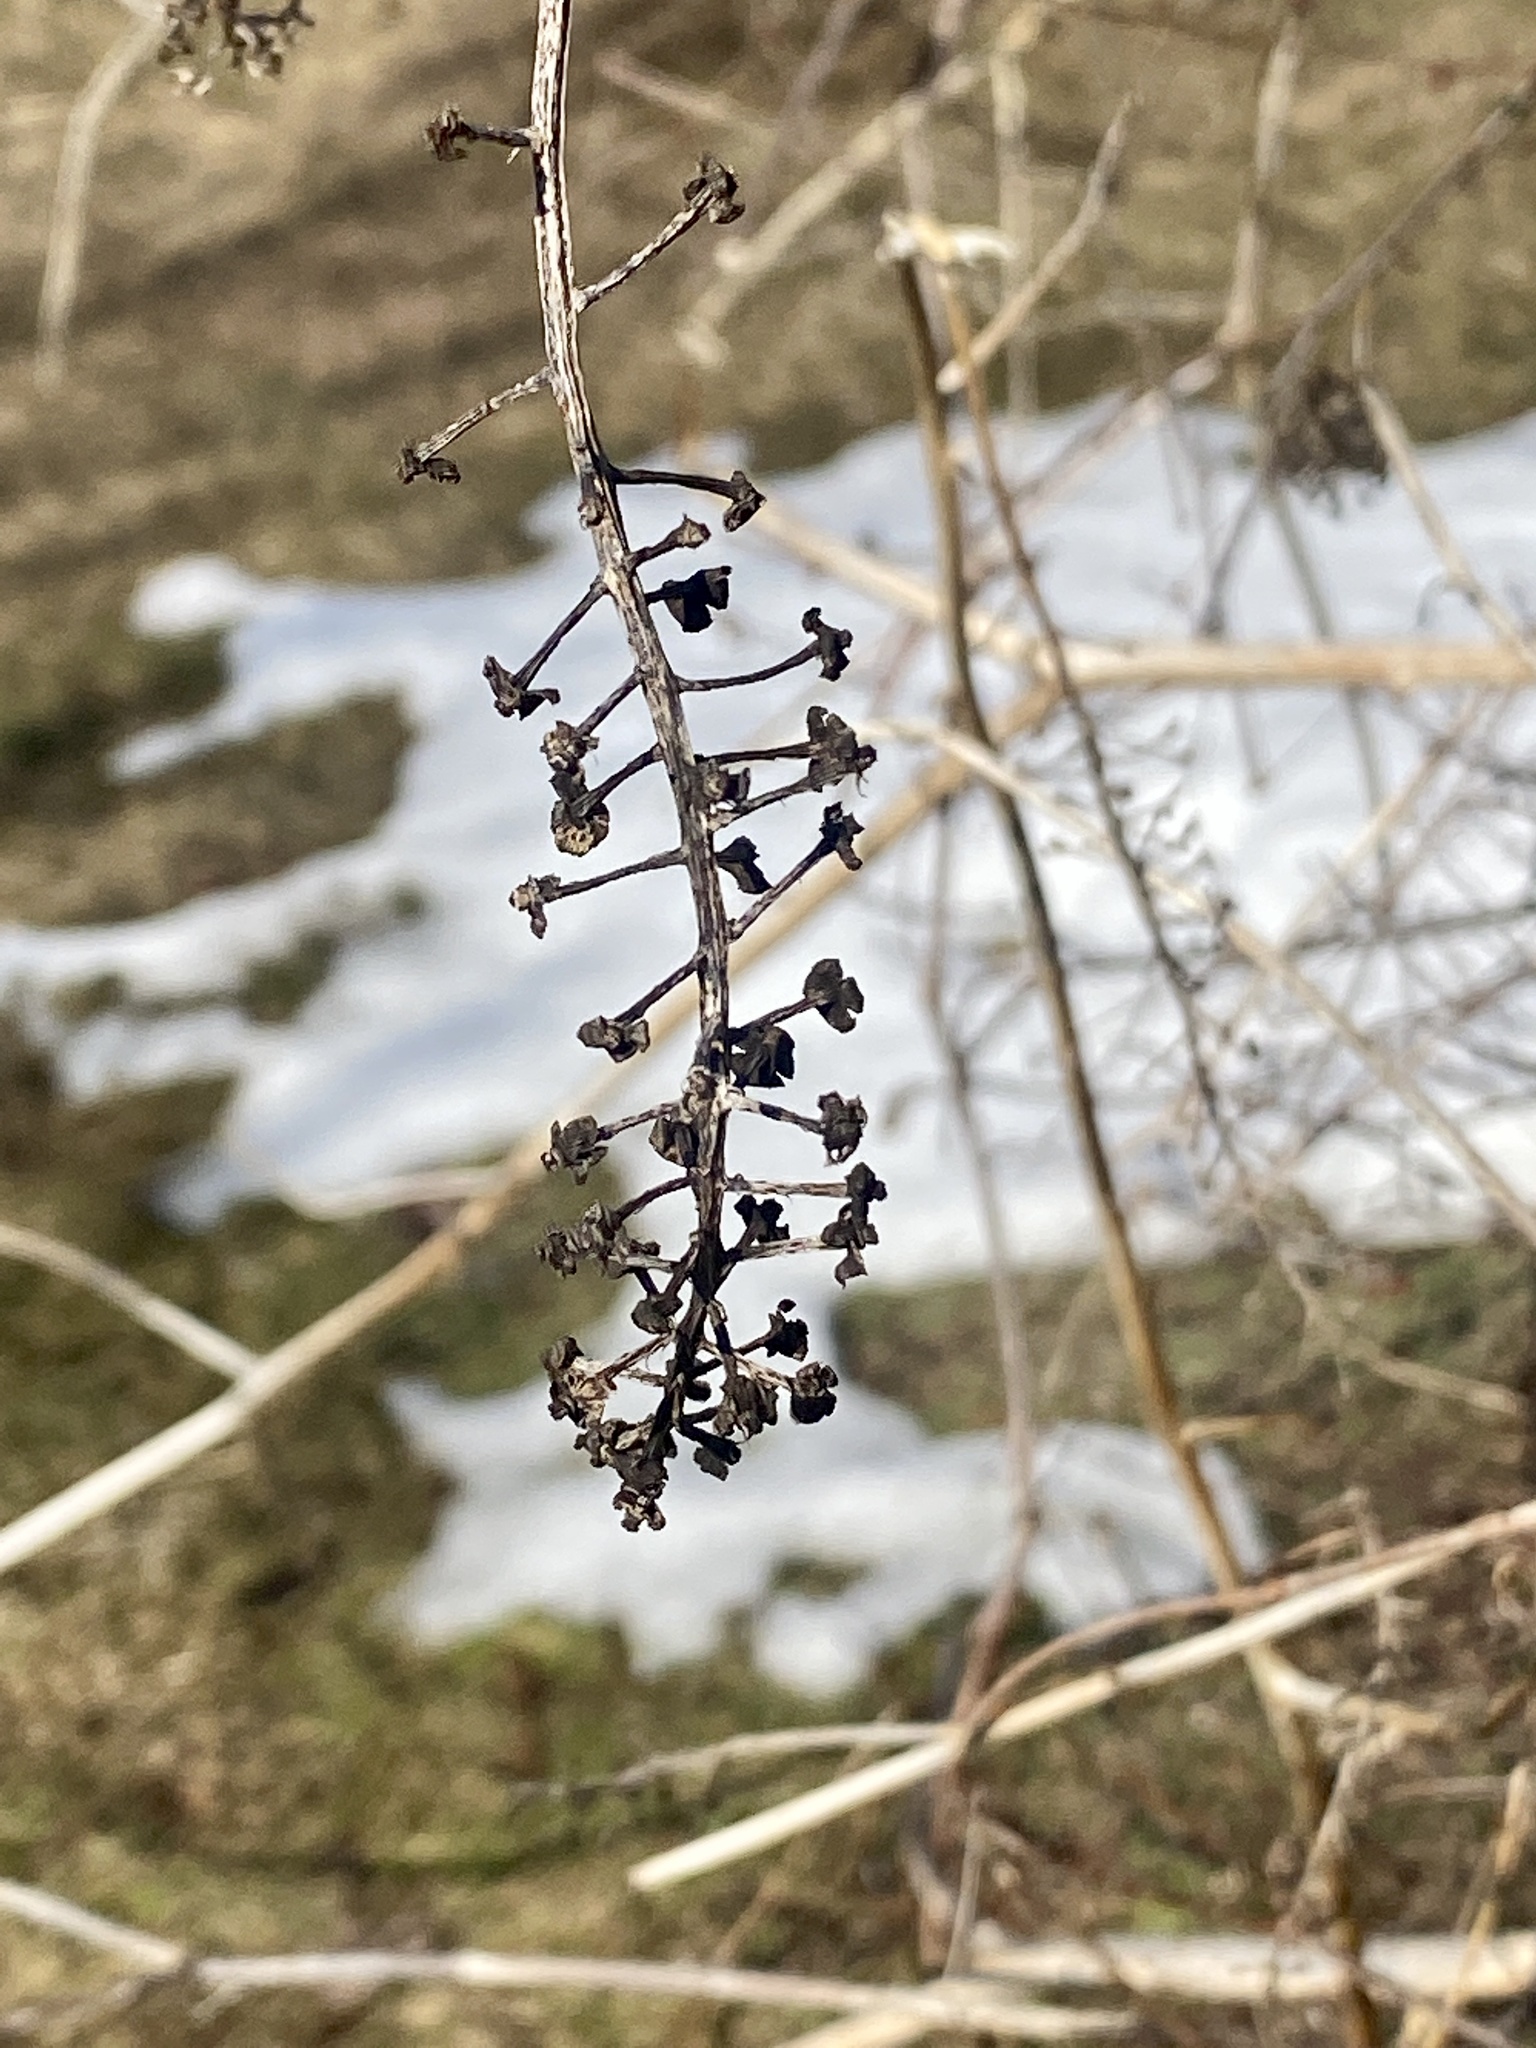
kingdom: Plantae
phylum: Tracheophyta
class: Magnoliopsida
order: Caryophyllales
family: Phytolaccaceae
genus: Phytolacca
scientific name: Phytolacca americana
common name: American pokeweed
